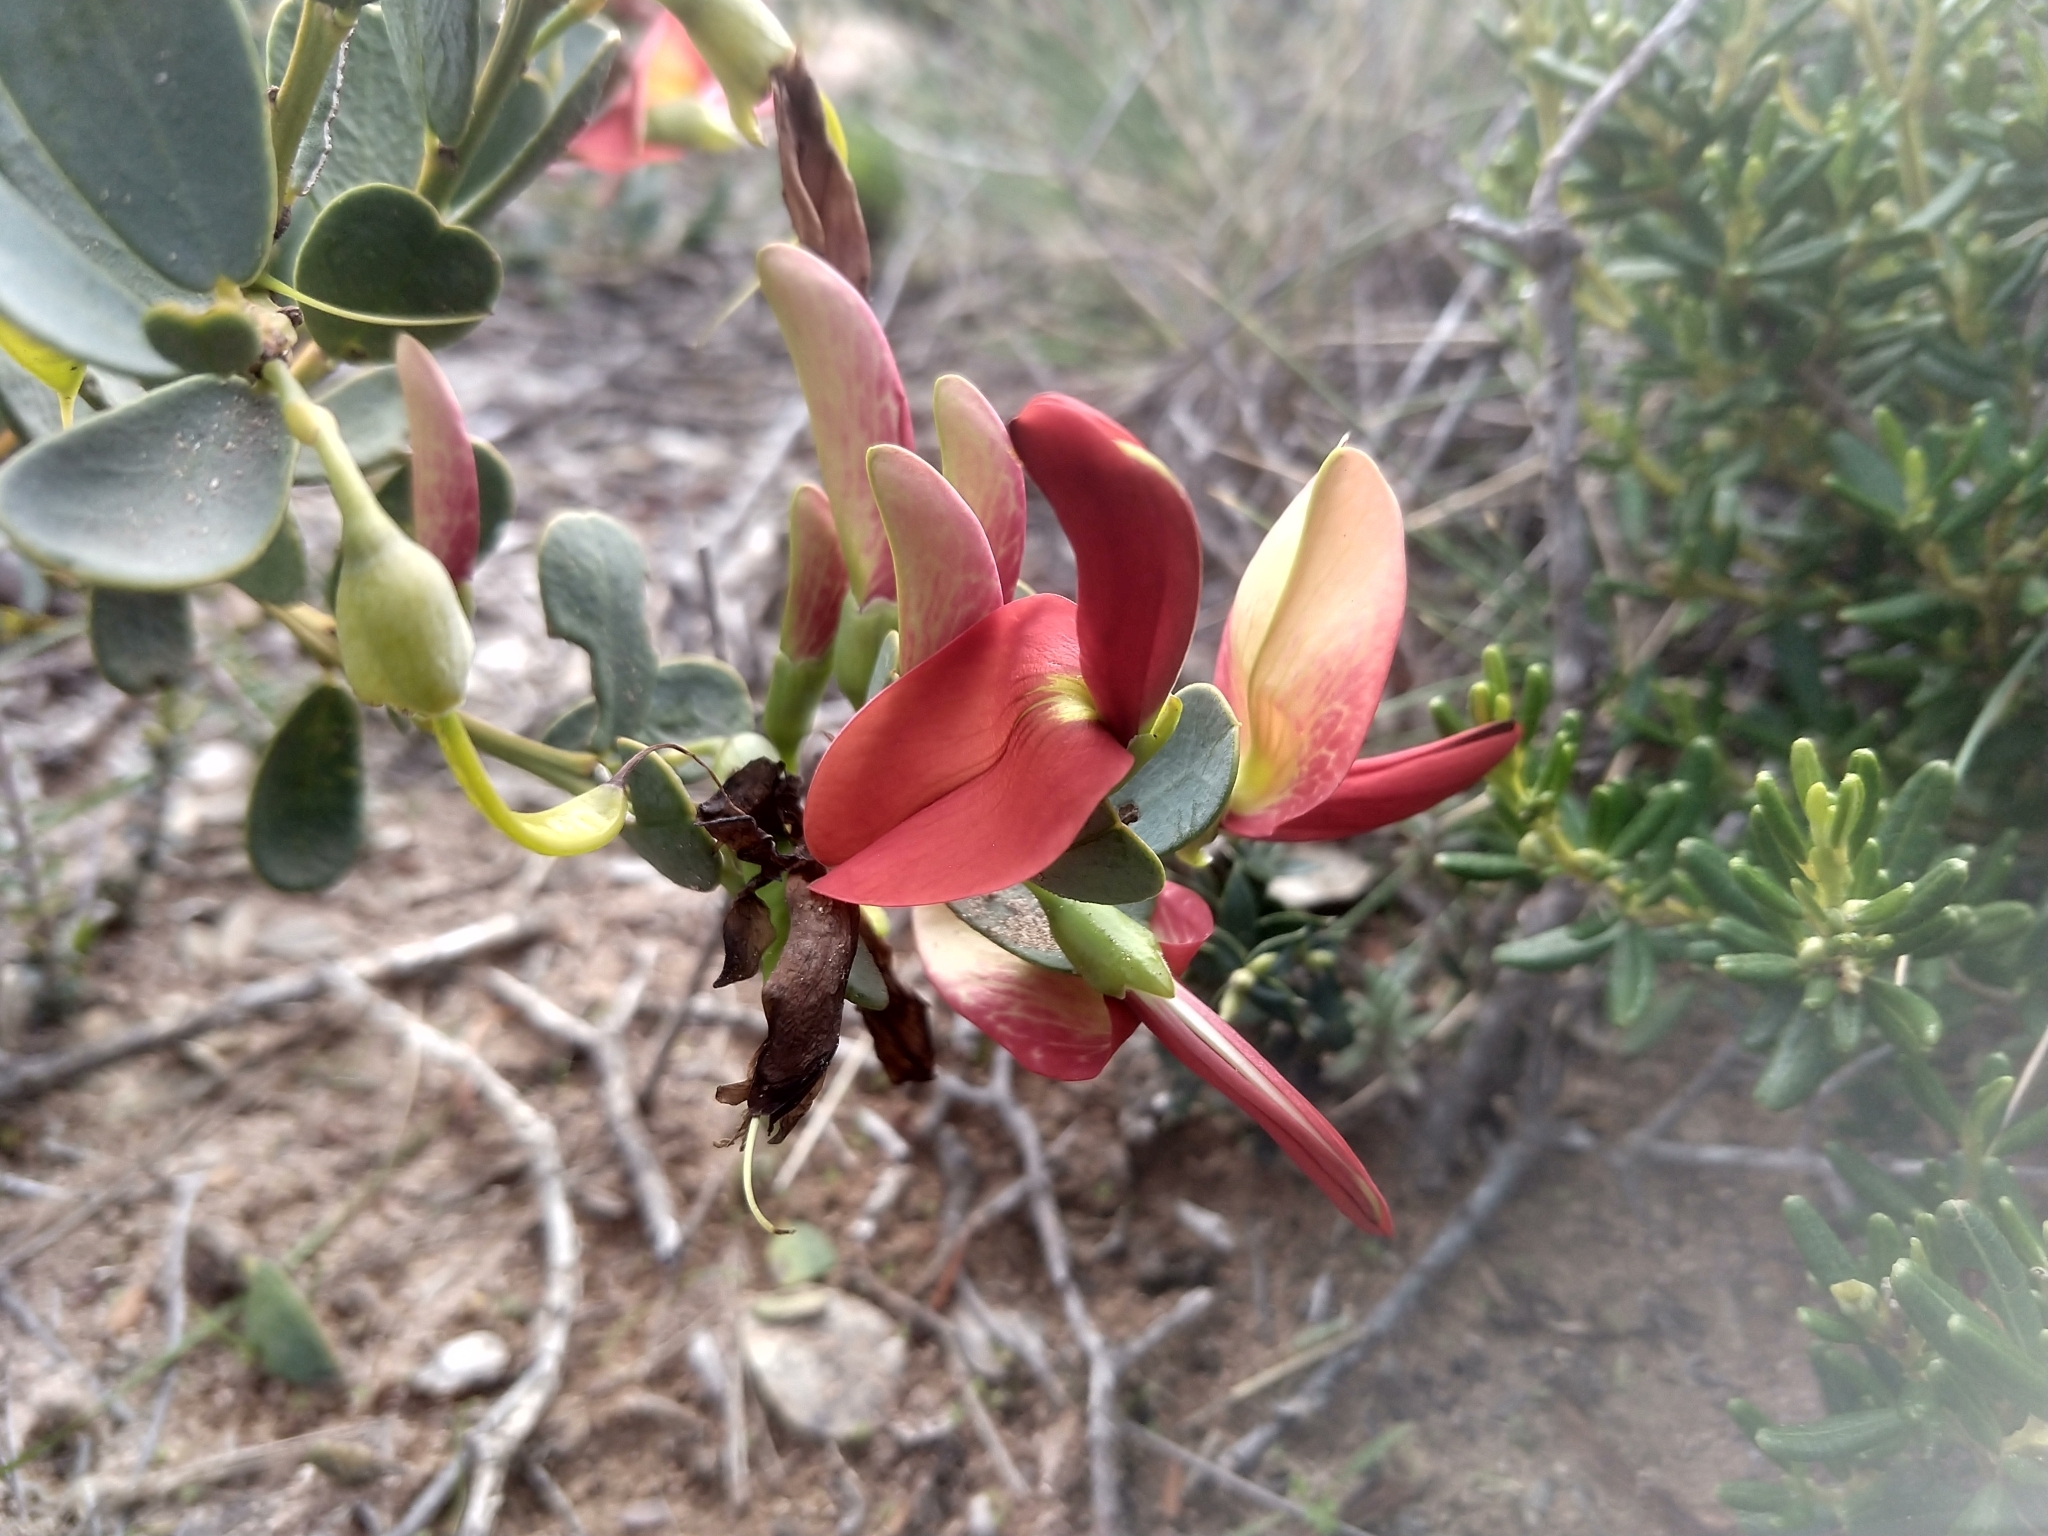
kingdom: Plantae
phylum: Tracheophyta
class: Magnoliopsida
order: Fabales
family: Fabaceae
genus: Templetonia
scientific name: Templetonia retusa
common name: Cockies'-tongue
